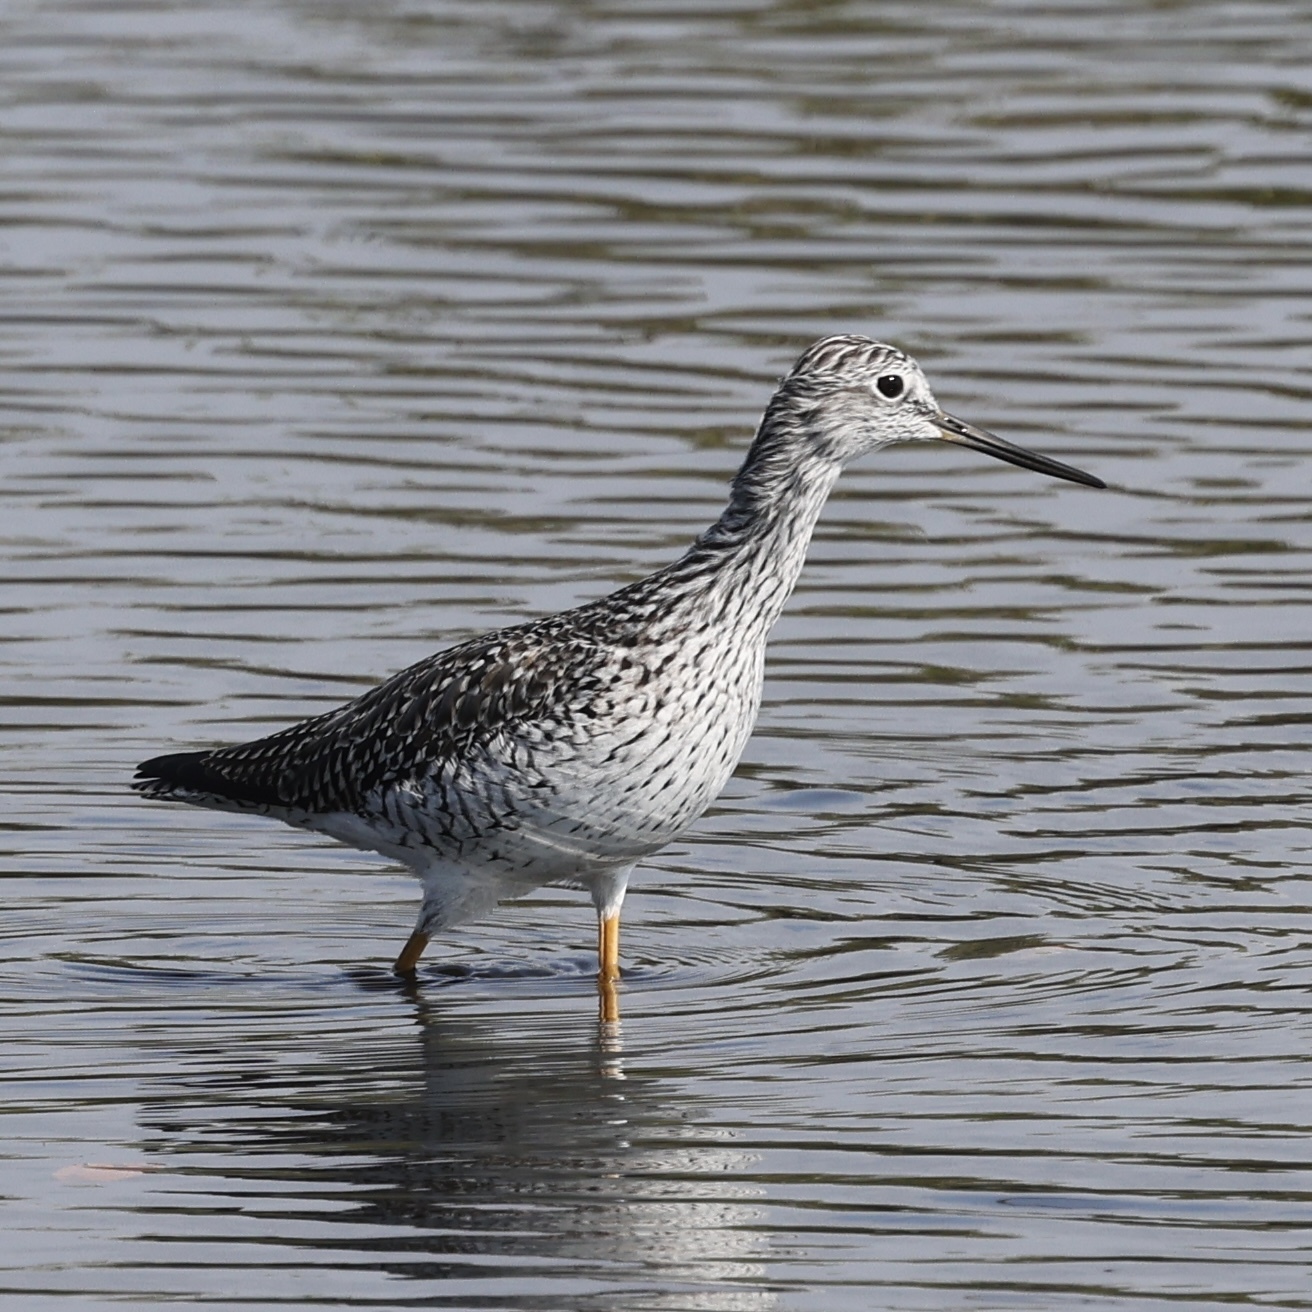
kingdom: Animalia
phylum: Chordata
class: Aves
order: Charadriiformes
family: Scolopacidae
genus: Tringa
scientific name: Tringa melanoleuca
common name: Greater yellowlegs
